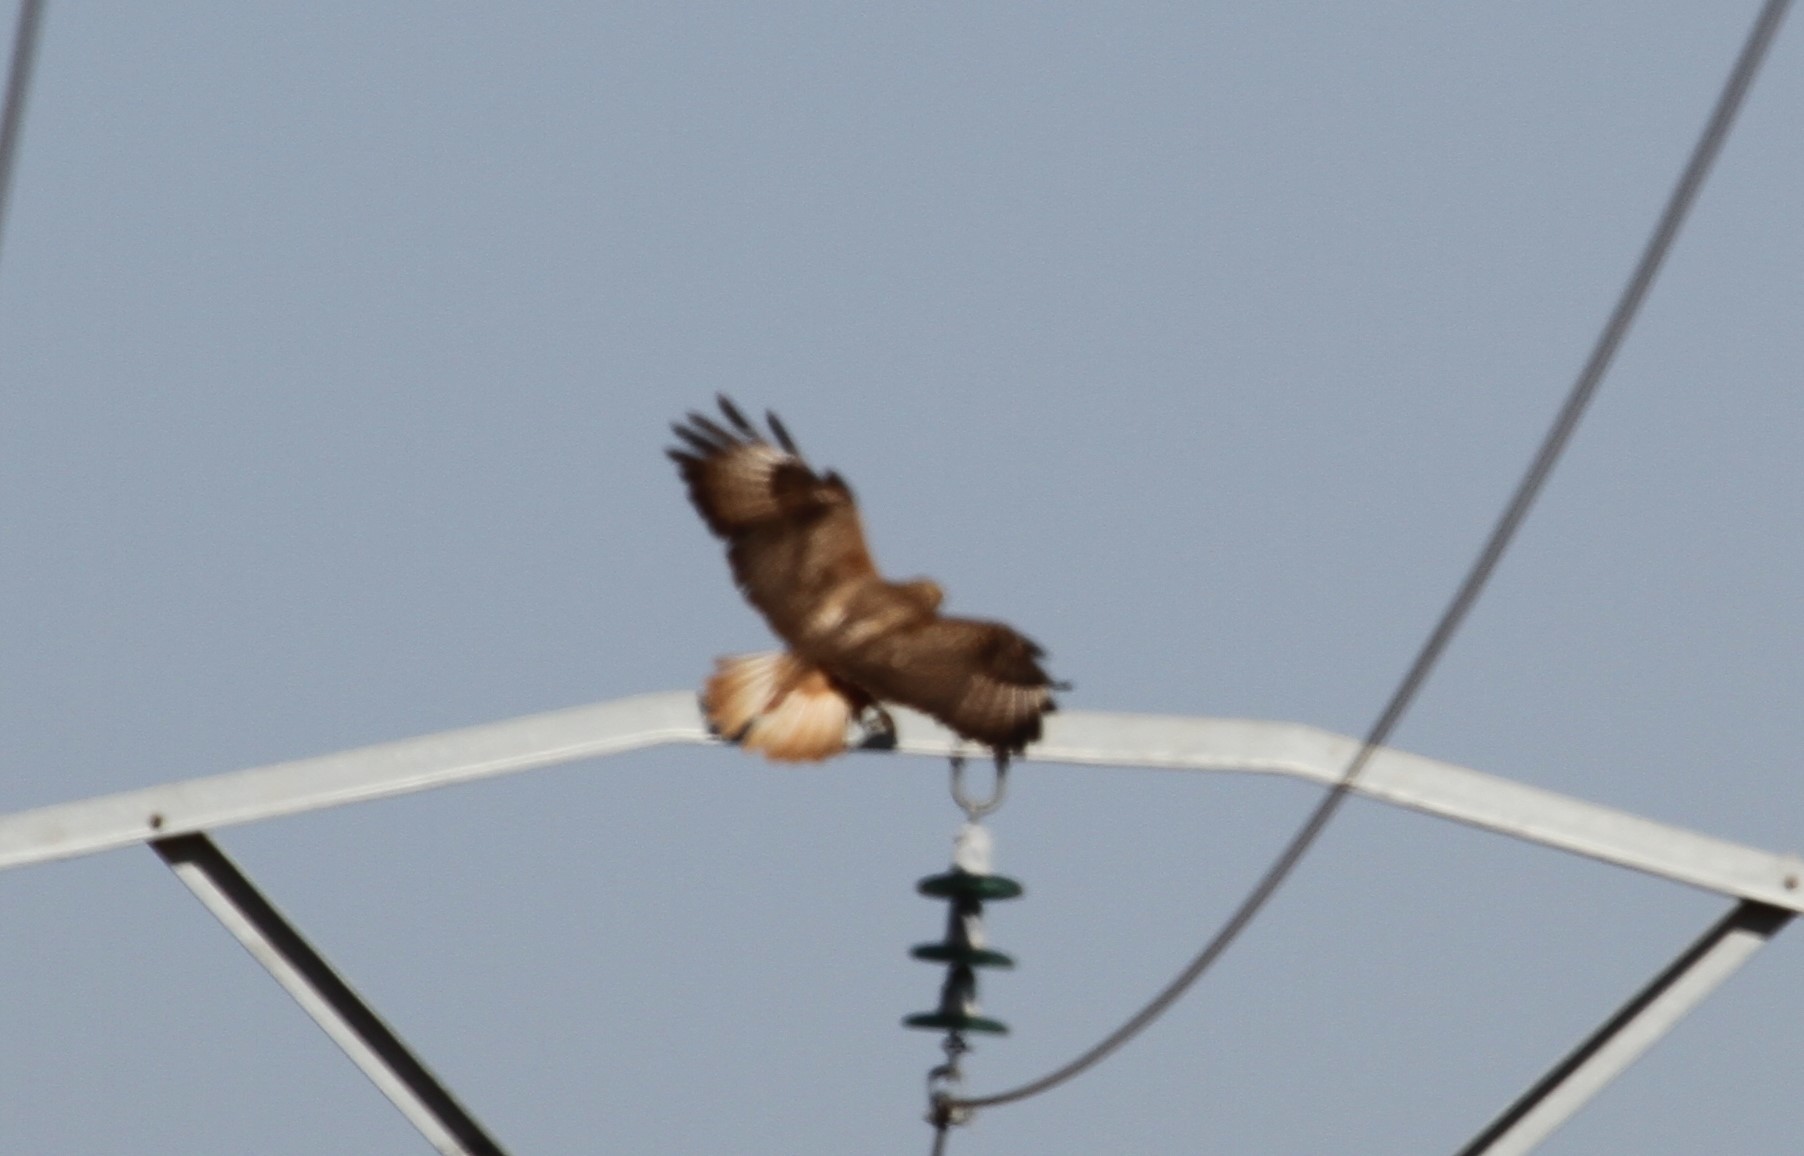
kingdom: Animalia
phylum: Chordata
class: Aves
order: Accipitriformes
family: Accipitridae
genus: Buteo
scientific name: Buteo rufinus
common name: Long-legged buzzard
